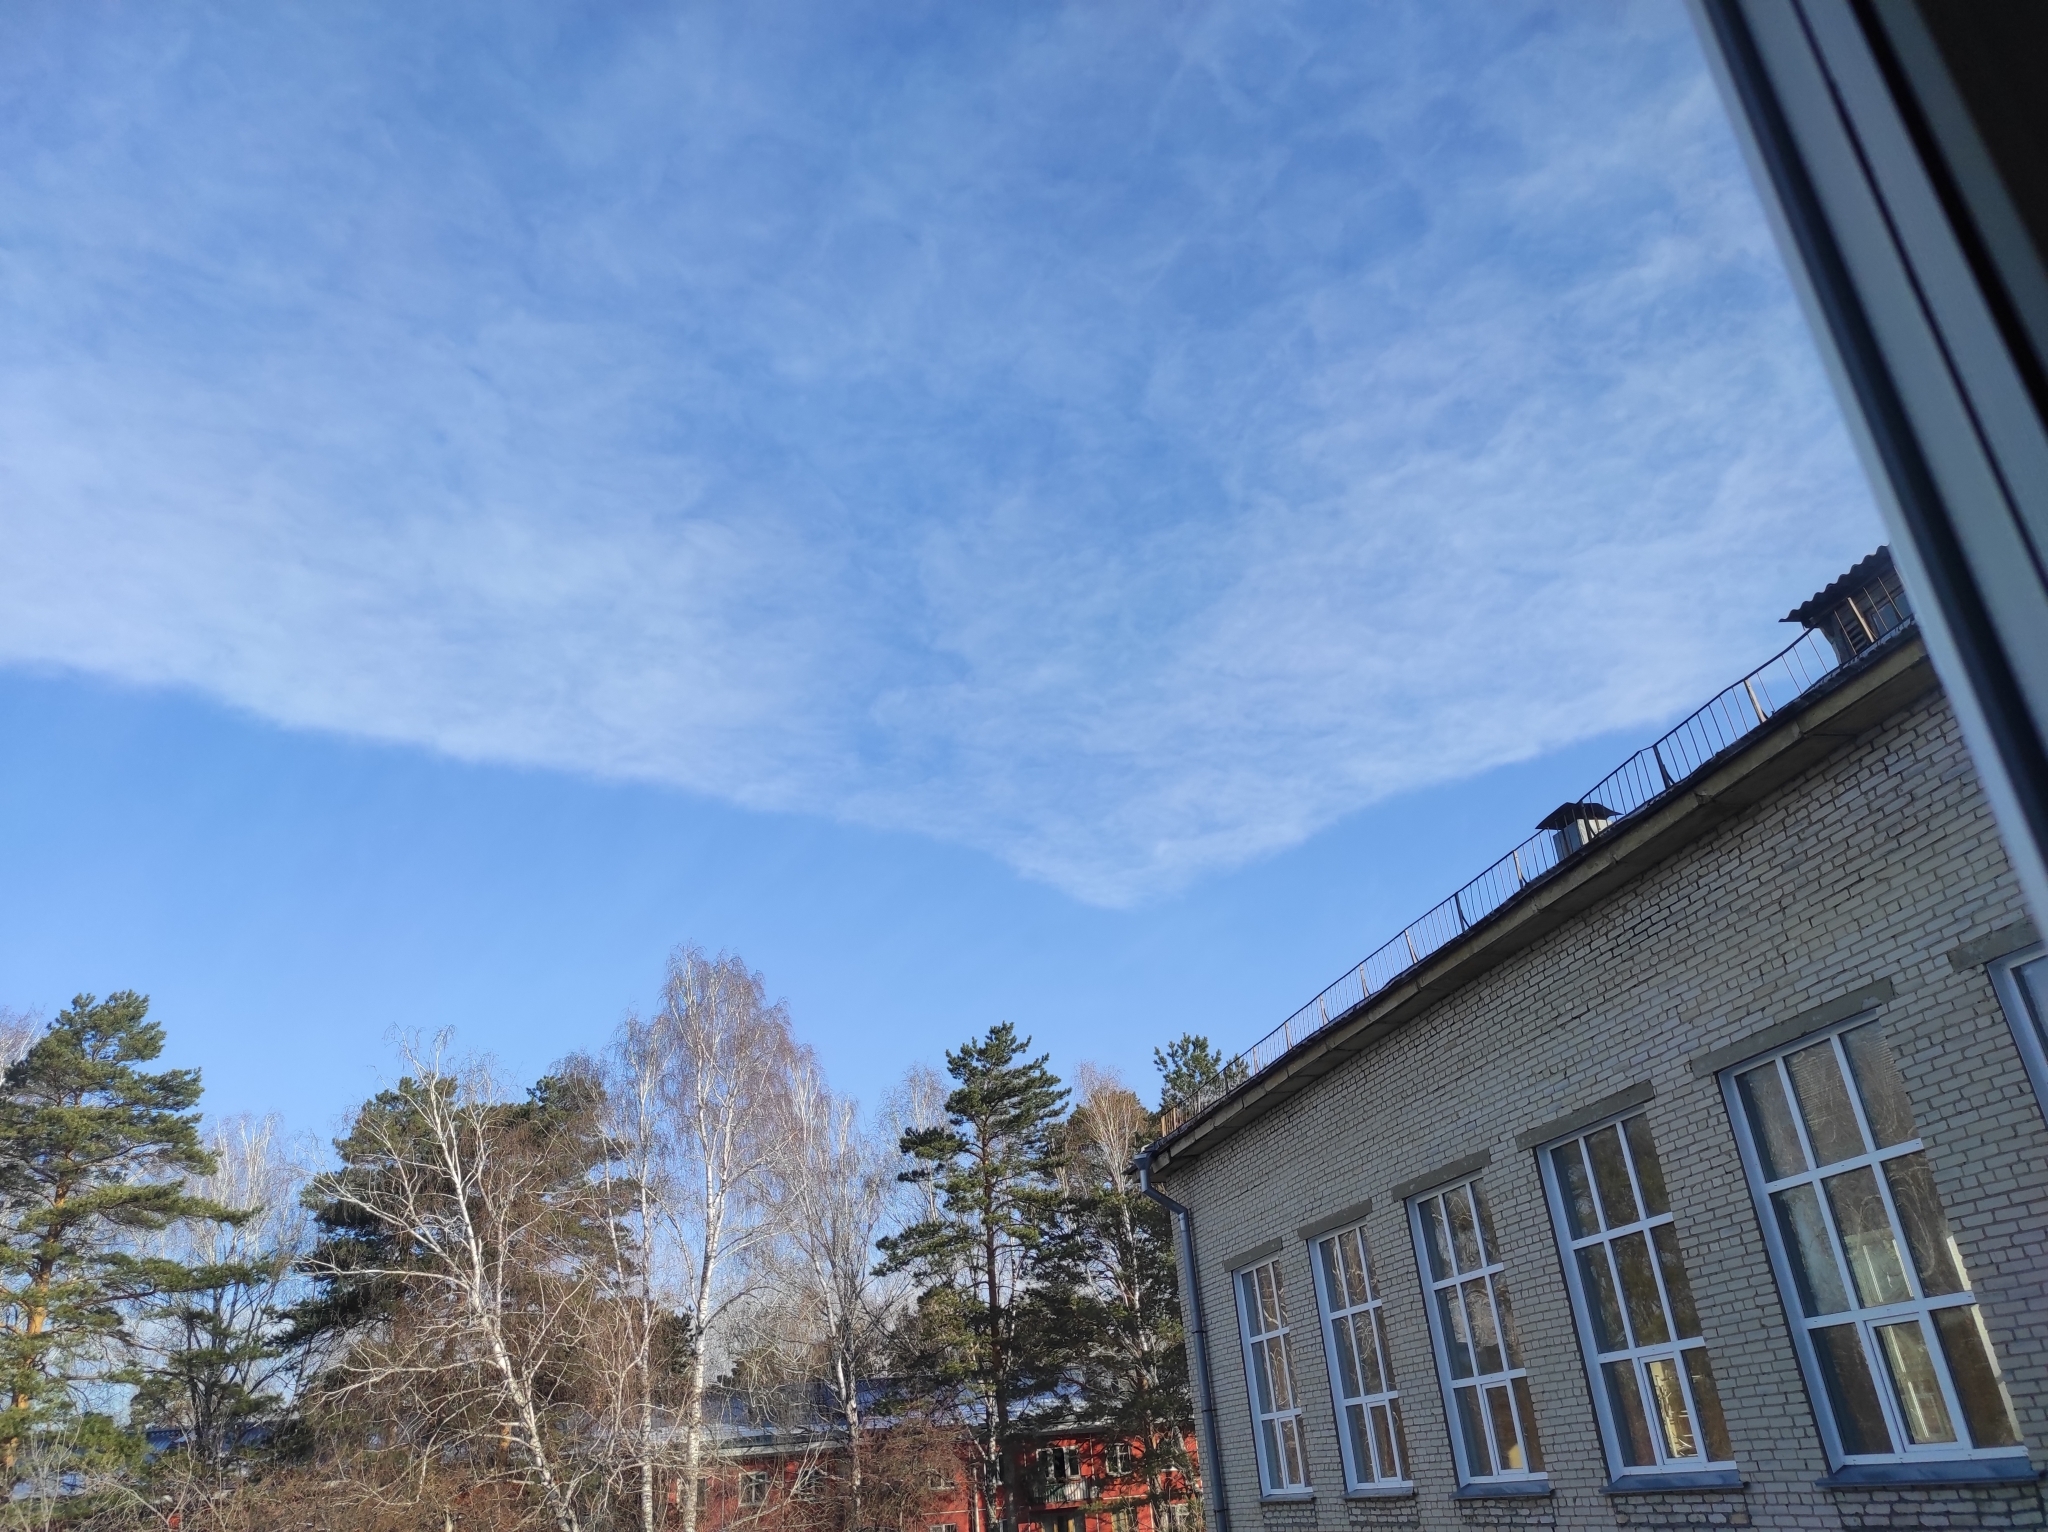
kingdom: Plantae
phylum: Tracheophyta
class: Pinopsida
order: Pinales
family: Pinaceae
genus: Pinus
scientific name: Pinus sylvestris
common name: Scots pine
